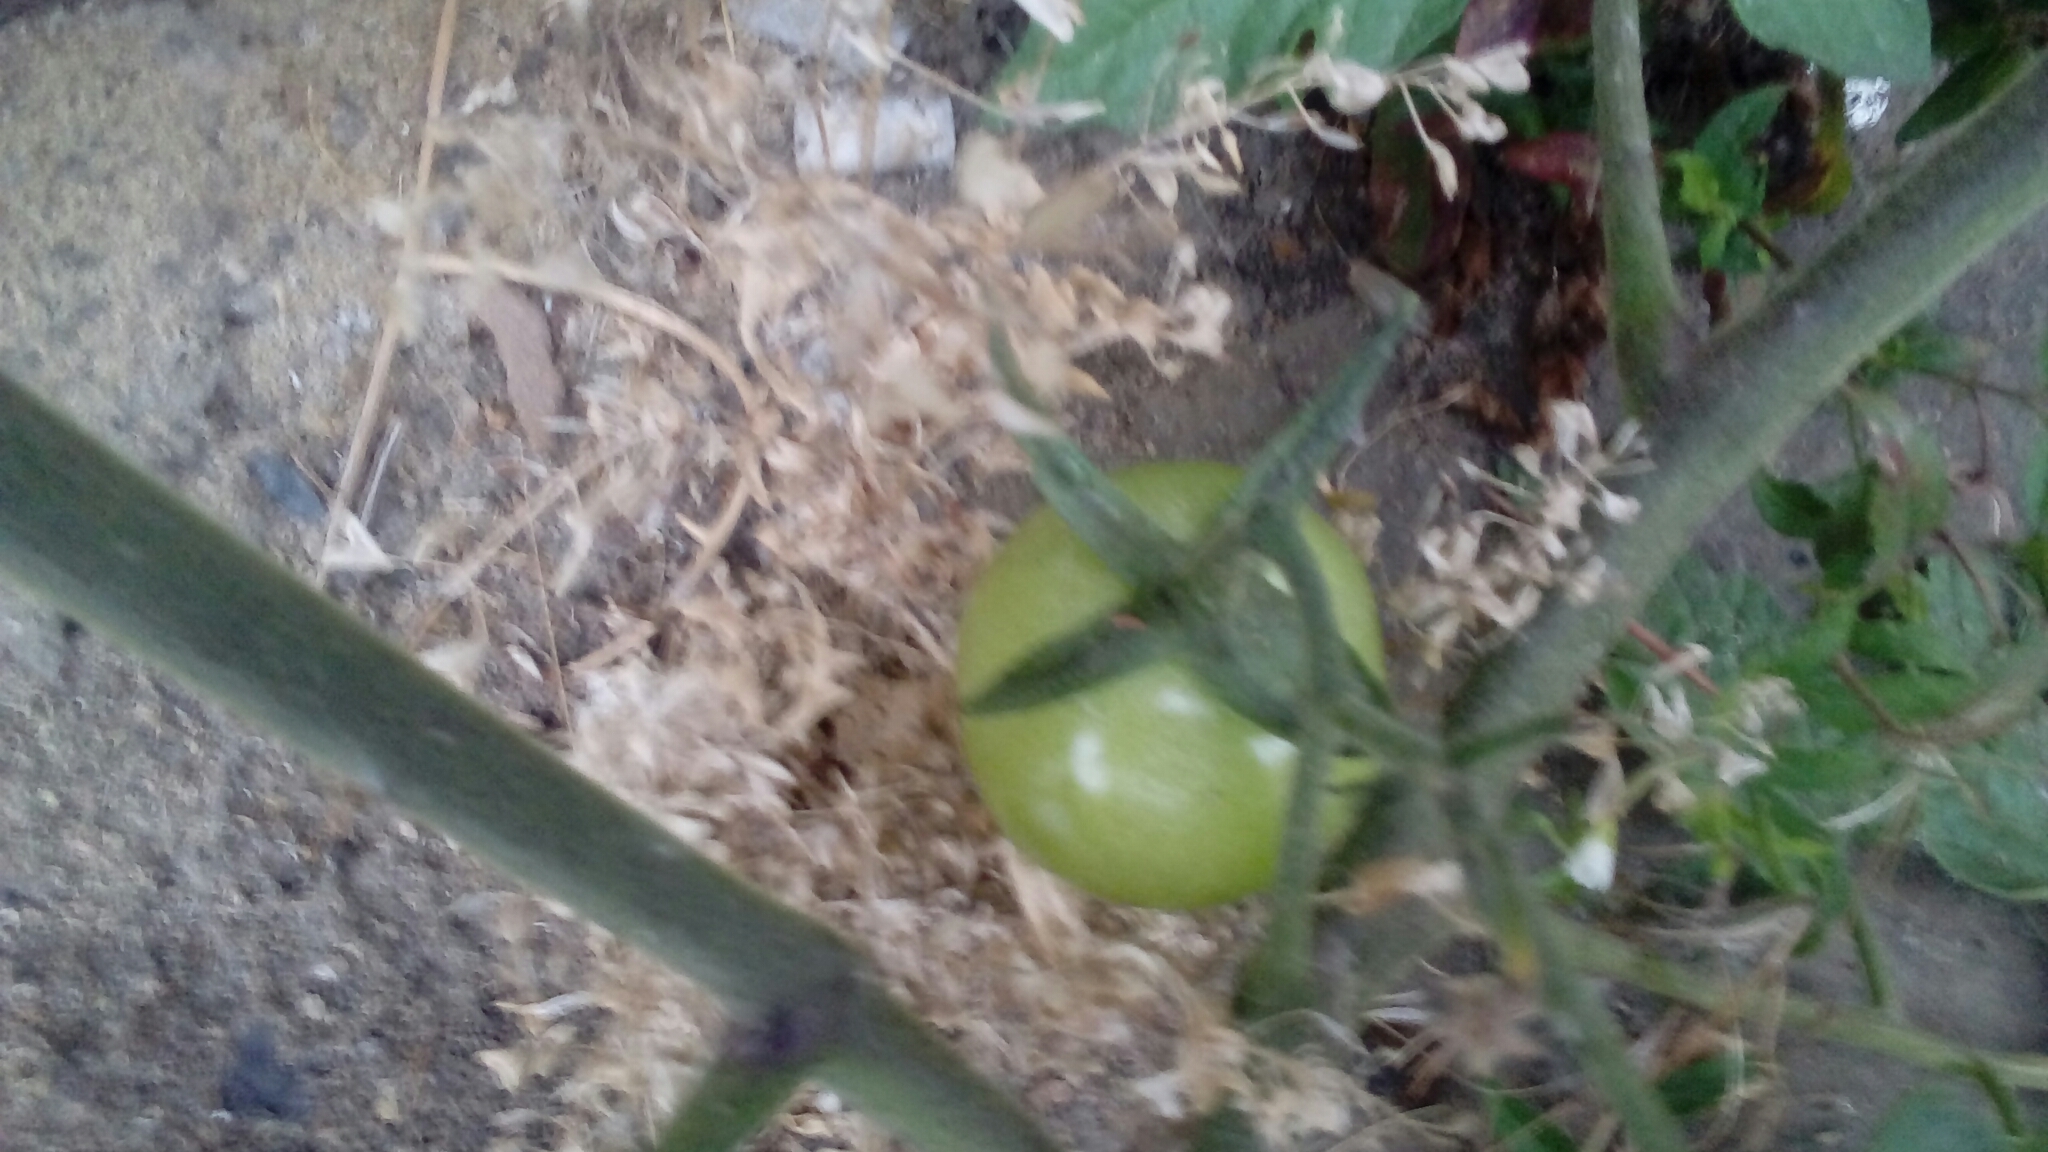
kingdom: Plantae
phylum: Tracheophyta
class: Magnoliopsida
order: Solanales
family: Solanaceae
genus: Solanum
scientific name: Solanum lycopersicum
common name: Garden tomato
